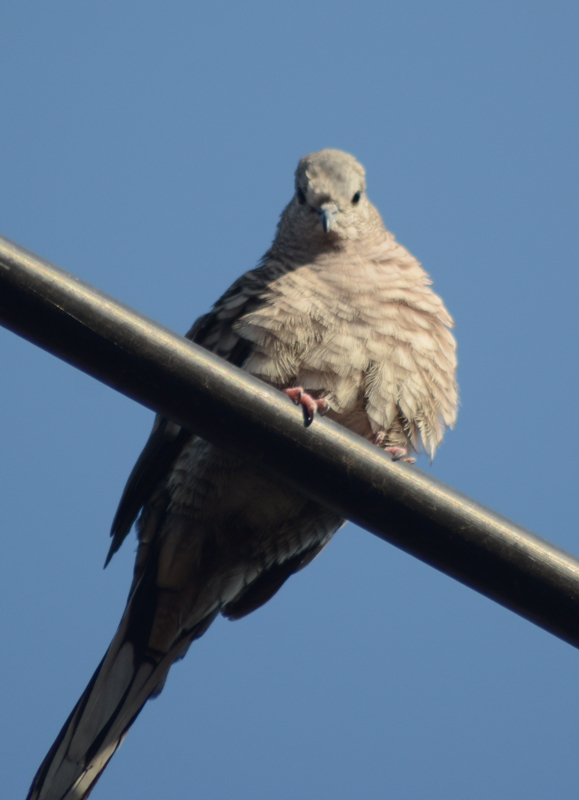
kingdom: Animalia
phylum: Chordata
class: Aves
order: Columbiformes
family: Columbidae
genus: Columbina
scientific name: Columbina inca
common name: Inca dove
